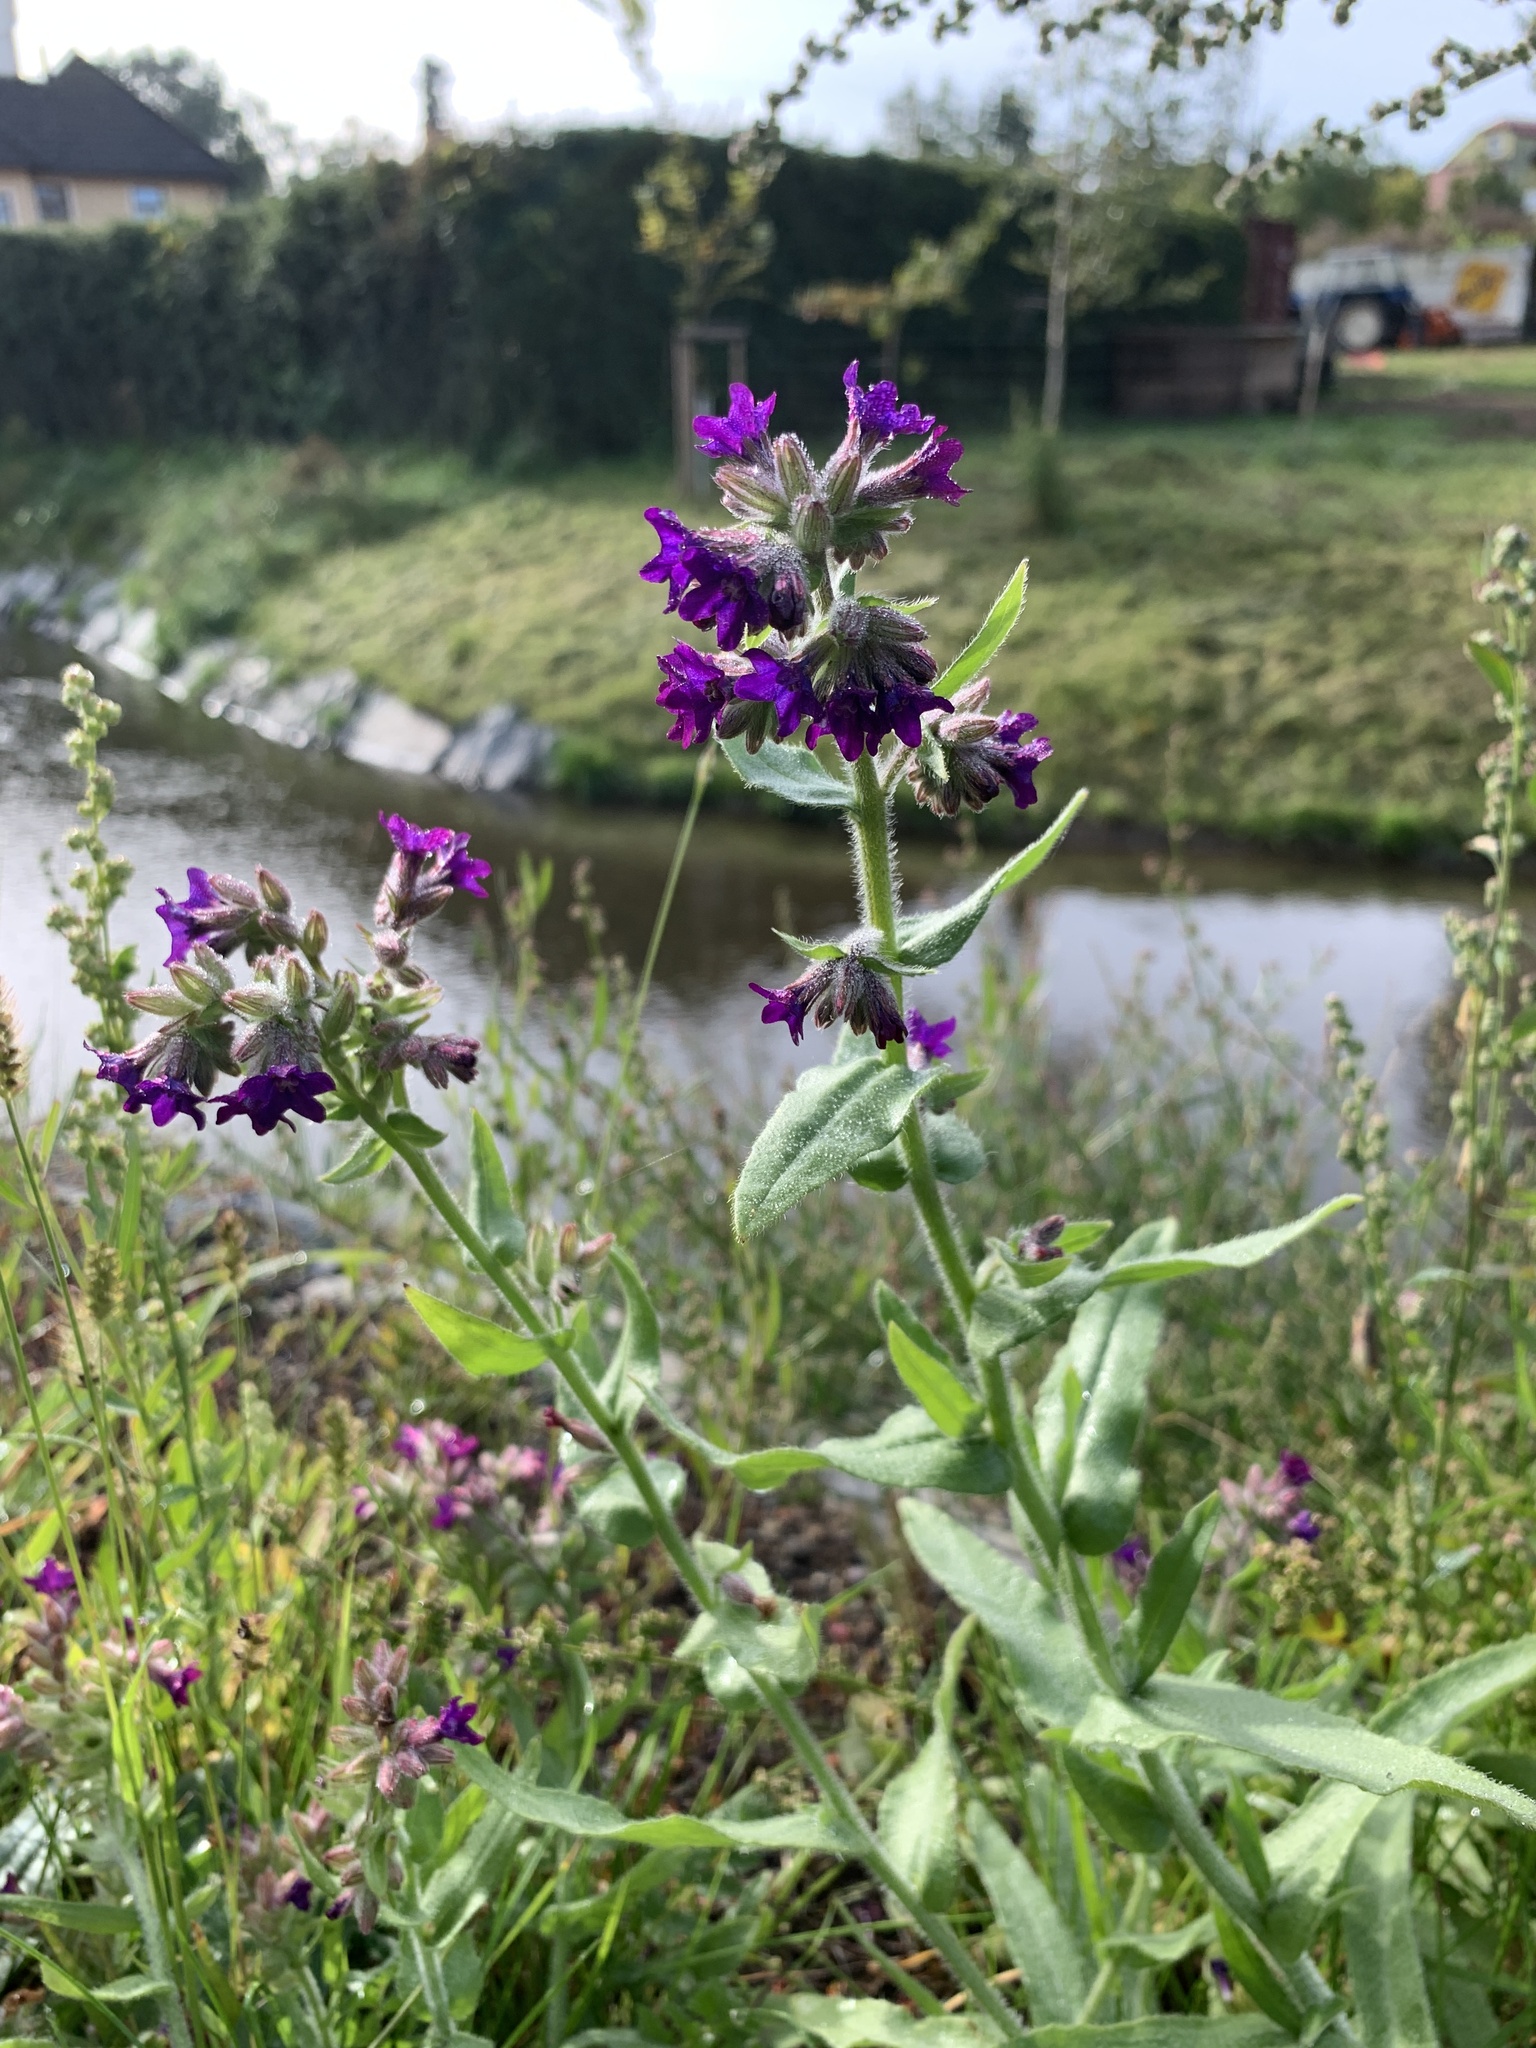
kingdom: Plantae
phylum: Tracheophyta
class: Magnoliopsida
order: Boraginales
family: Boraginaceae
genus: Anchusa
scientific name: Anchusa officinalis
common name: Alkanet
